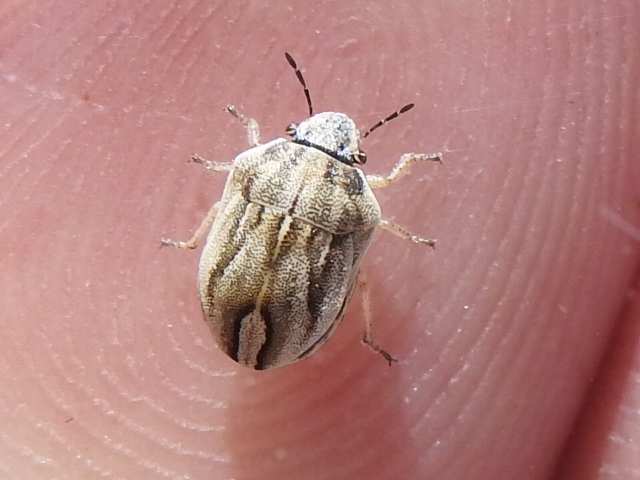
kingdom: Animalia
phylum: Arthropoda
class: Insecta
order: Hemiptera
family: Scutelleridae
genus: Homaemus
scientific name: Homaemus parvulus
